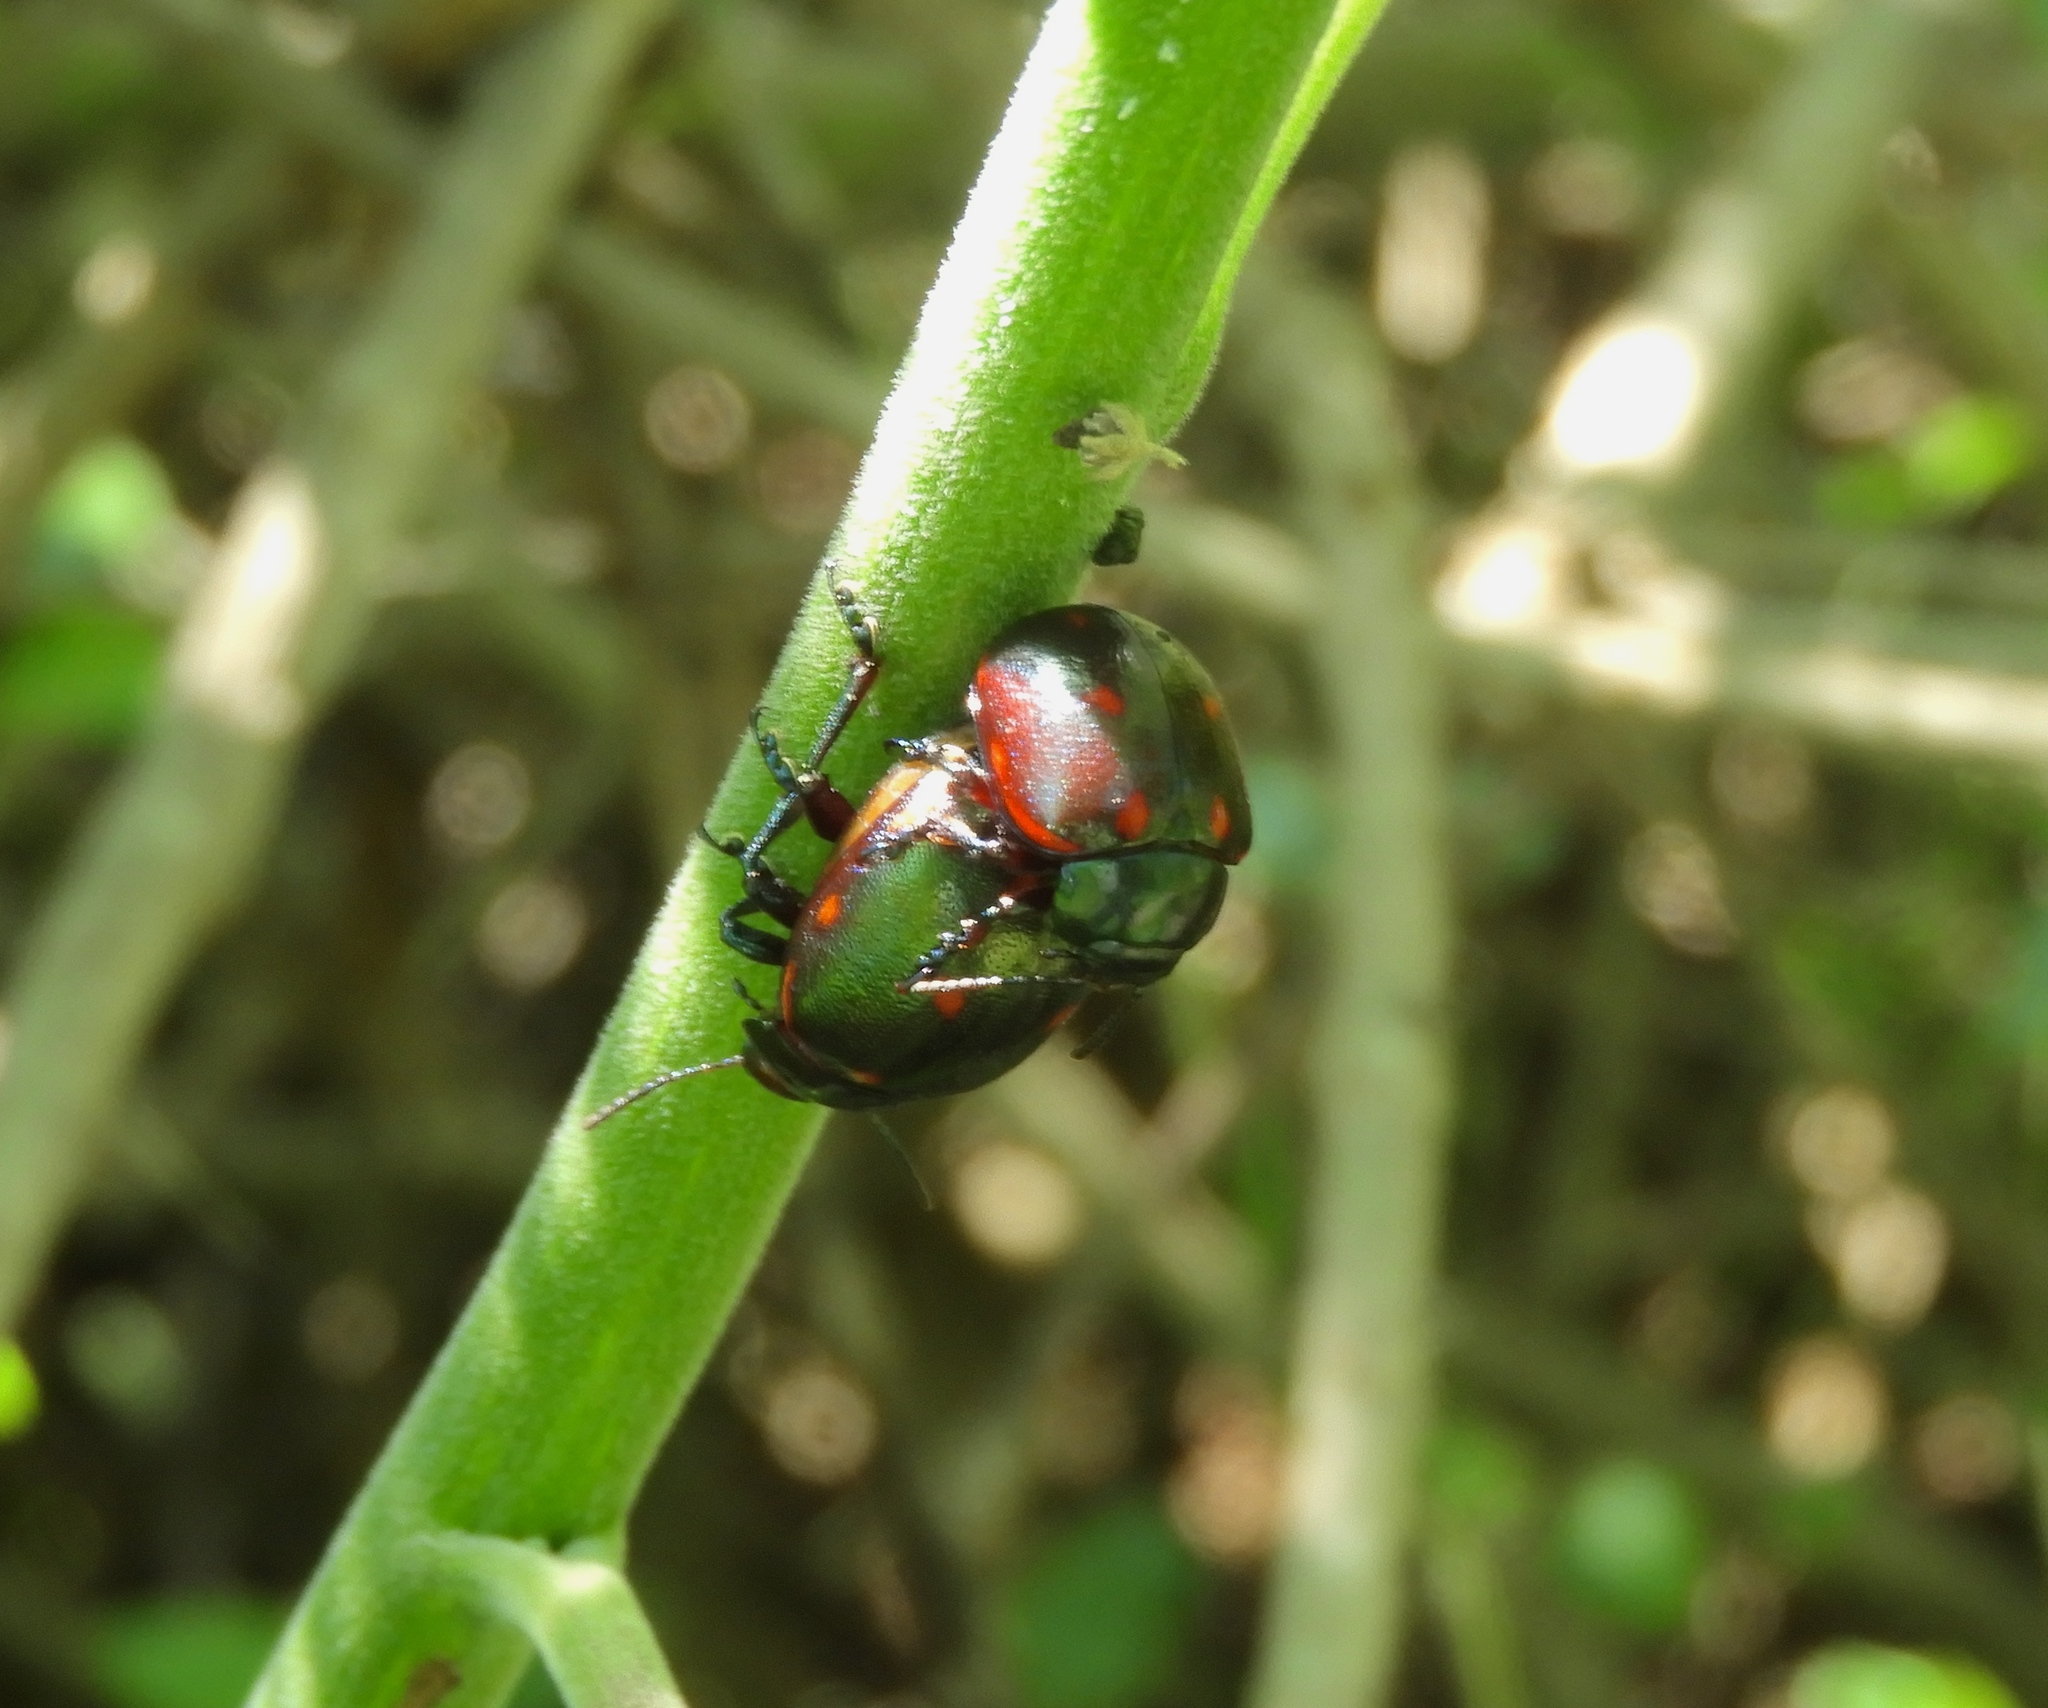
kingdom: Animalia
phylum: Arthropoda
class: Insecta
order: Coleoptera
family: Chrysomelidae
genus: Leptinotarsa
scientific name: Leptinotarsa behrensi
